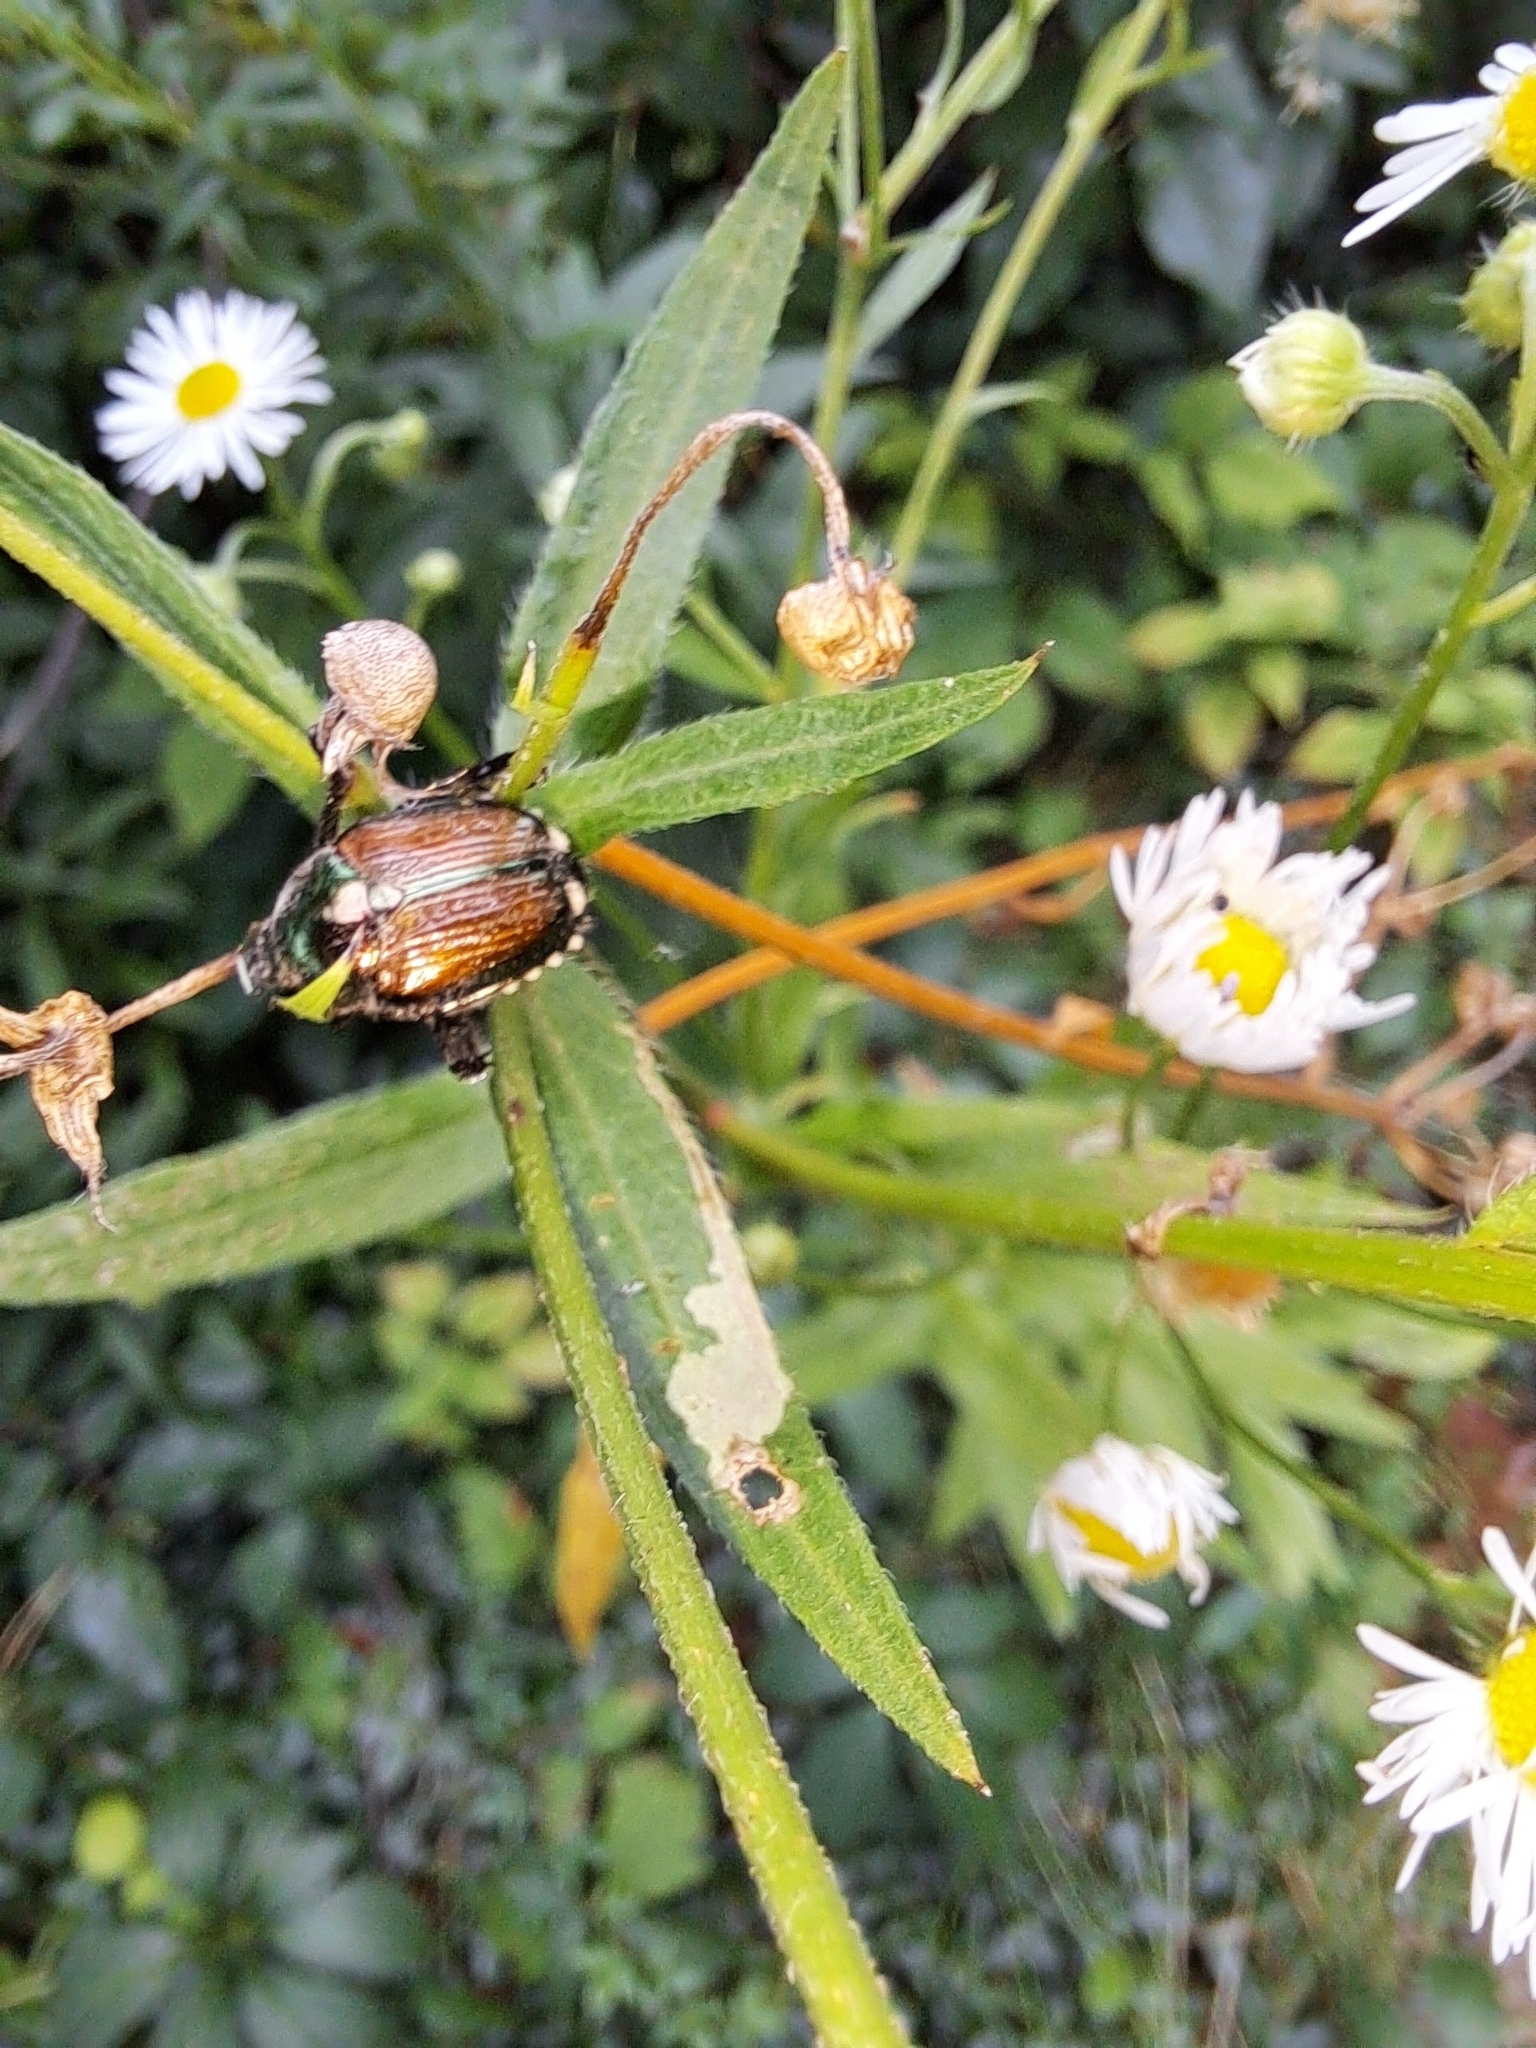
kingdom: Animalia
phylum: Arthropoda
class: Insecta
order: Coleoptera
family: Scarabaeidae
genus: Popillia
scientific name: Popillia japonica
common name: Japanese beetle
